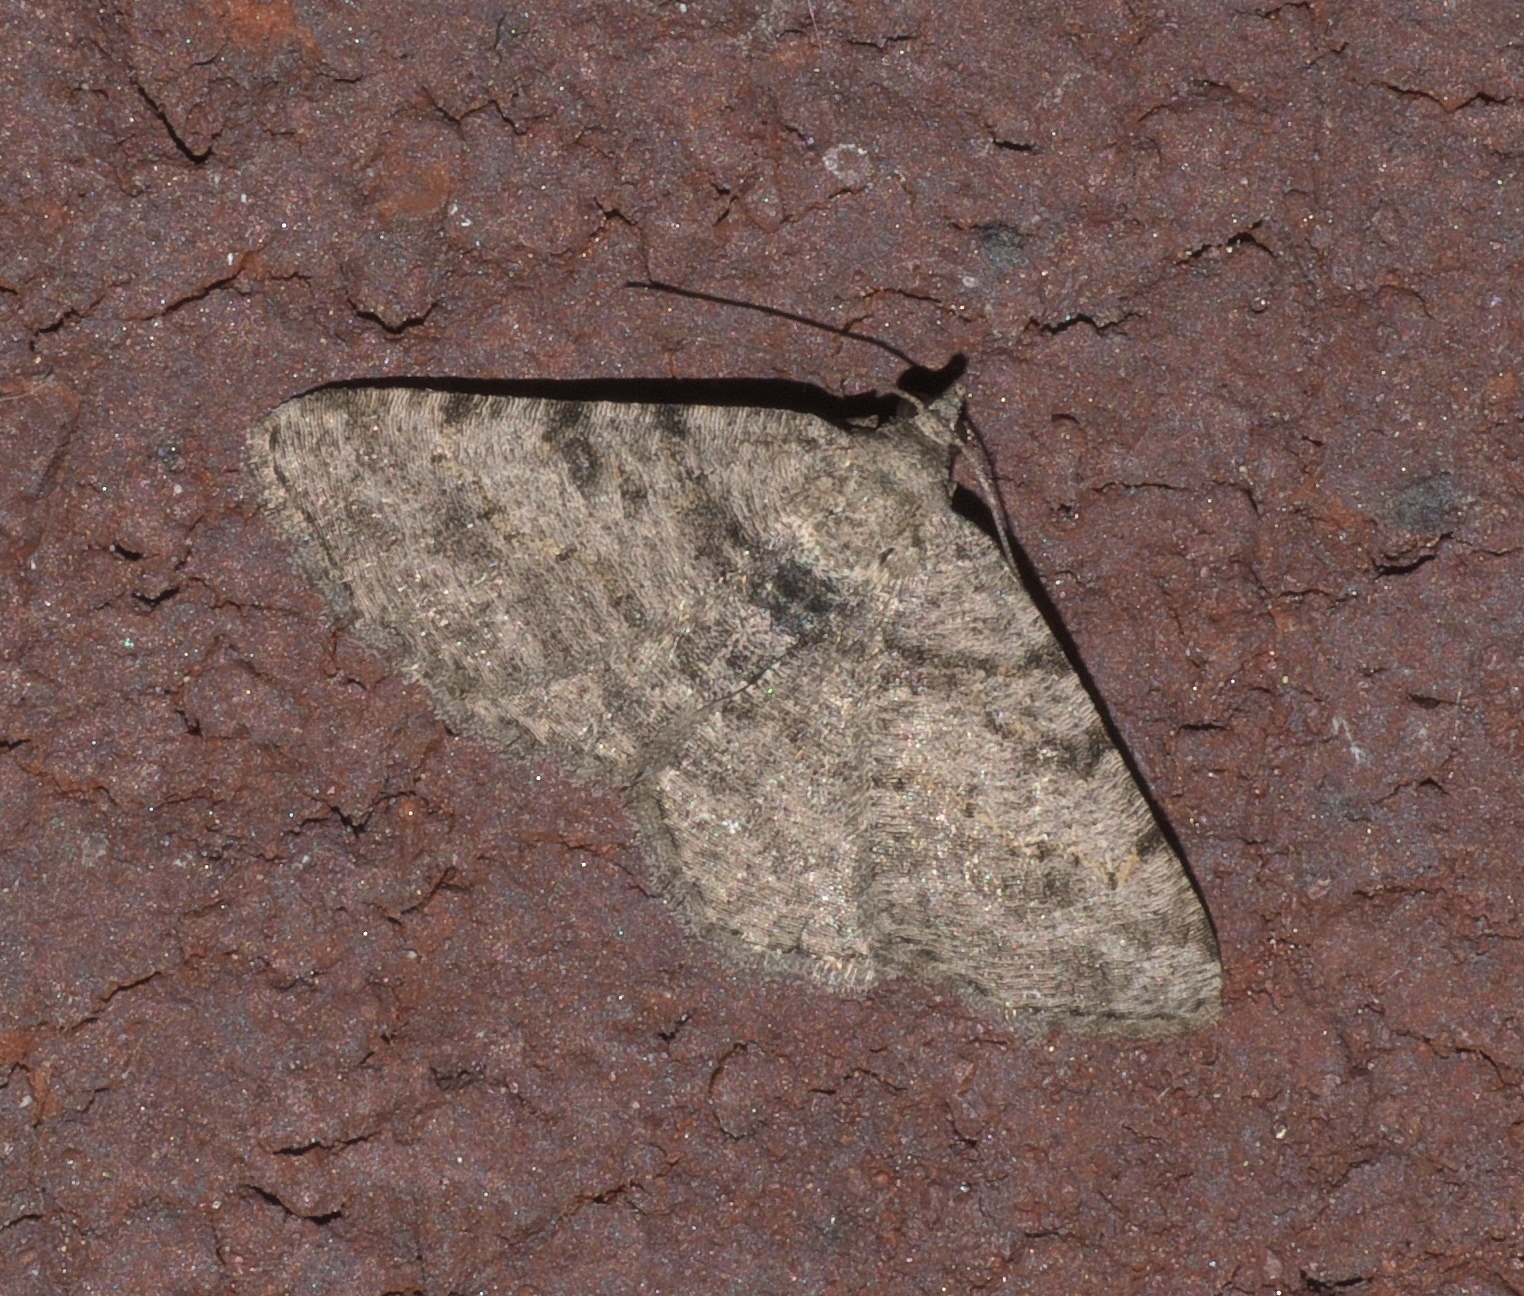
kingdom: Animalia
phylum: Arthropoda
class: Insecta
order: Lepidoptera
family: Geometridae
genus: Digrammia
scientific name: Digrammia gnophosaria
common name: Hollow-spotted angle
